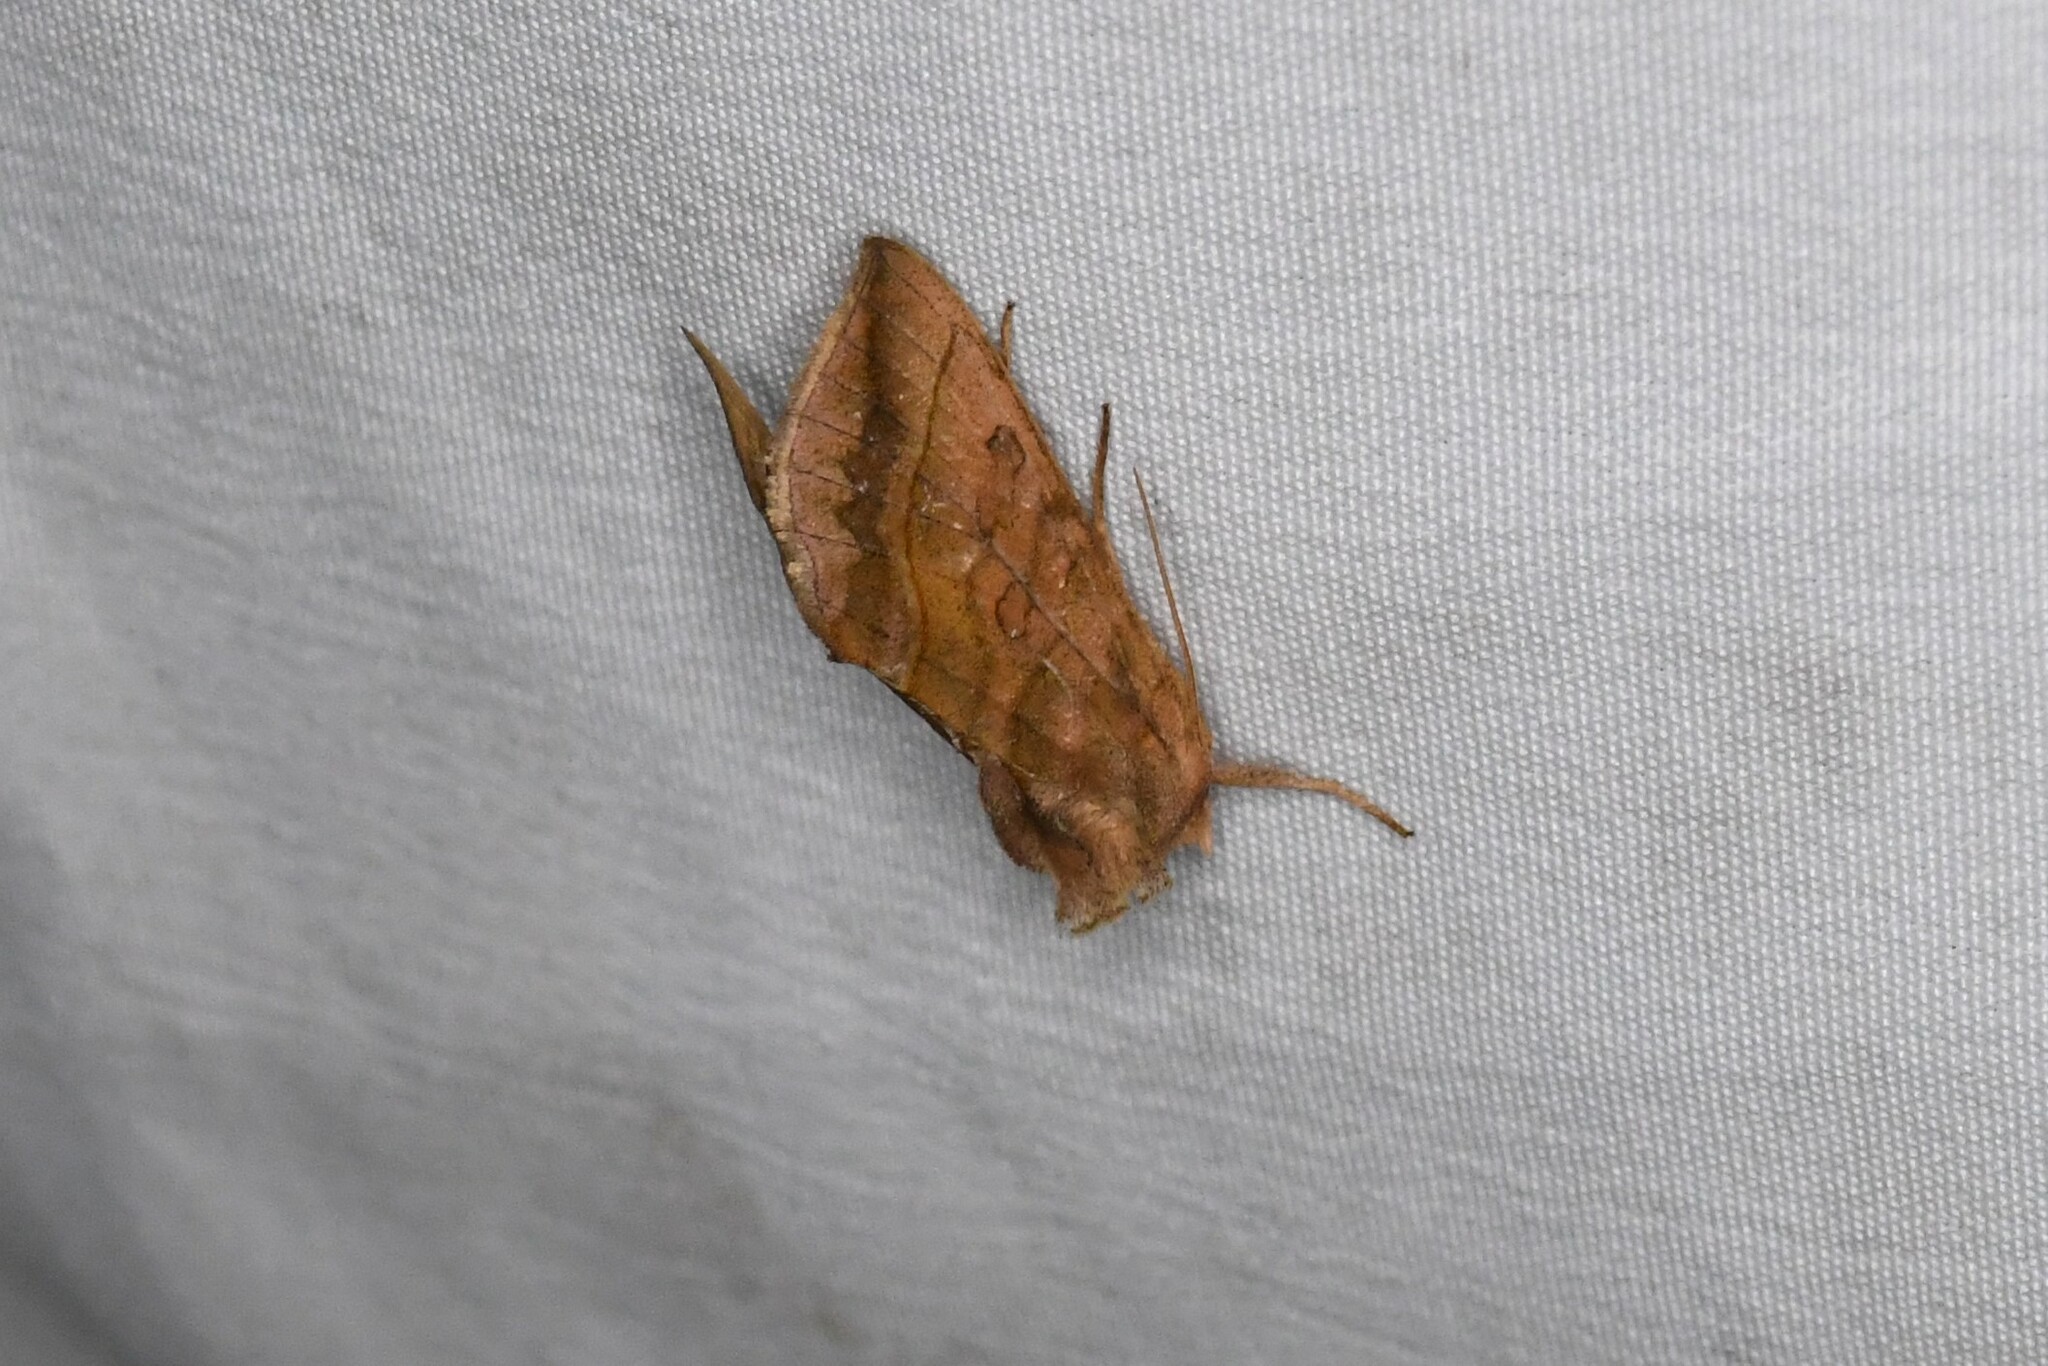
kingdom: Animalia
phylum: Arthropoda
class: Insecta
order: Lepidoptera
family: Noctuidae
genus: Diachrysia
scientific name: Diachrysia aereoides
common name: Dark-spotted looper moth
